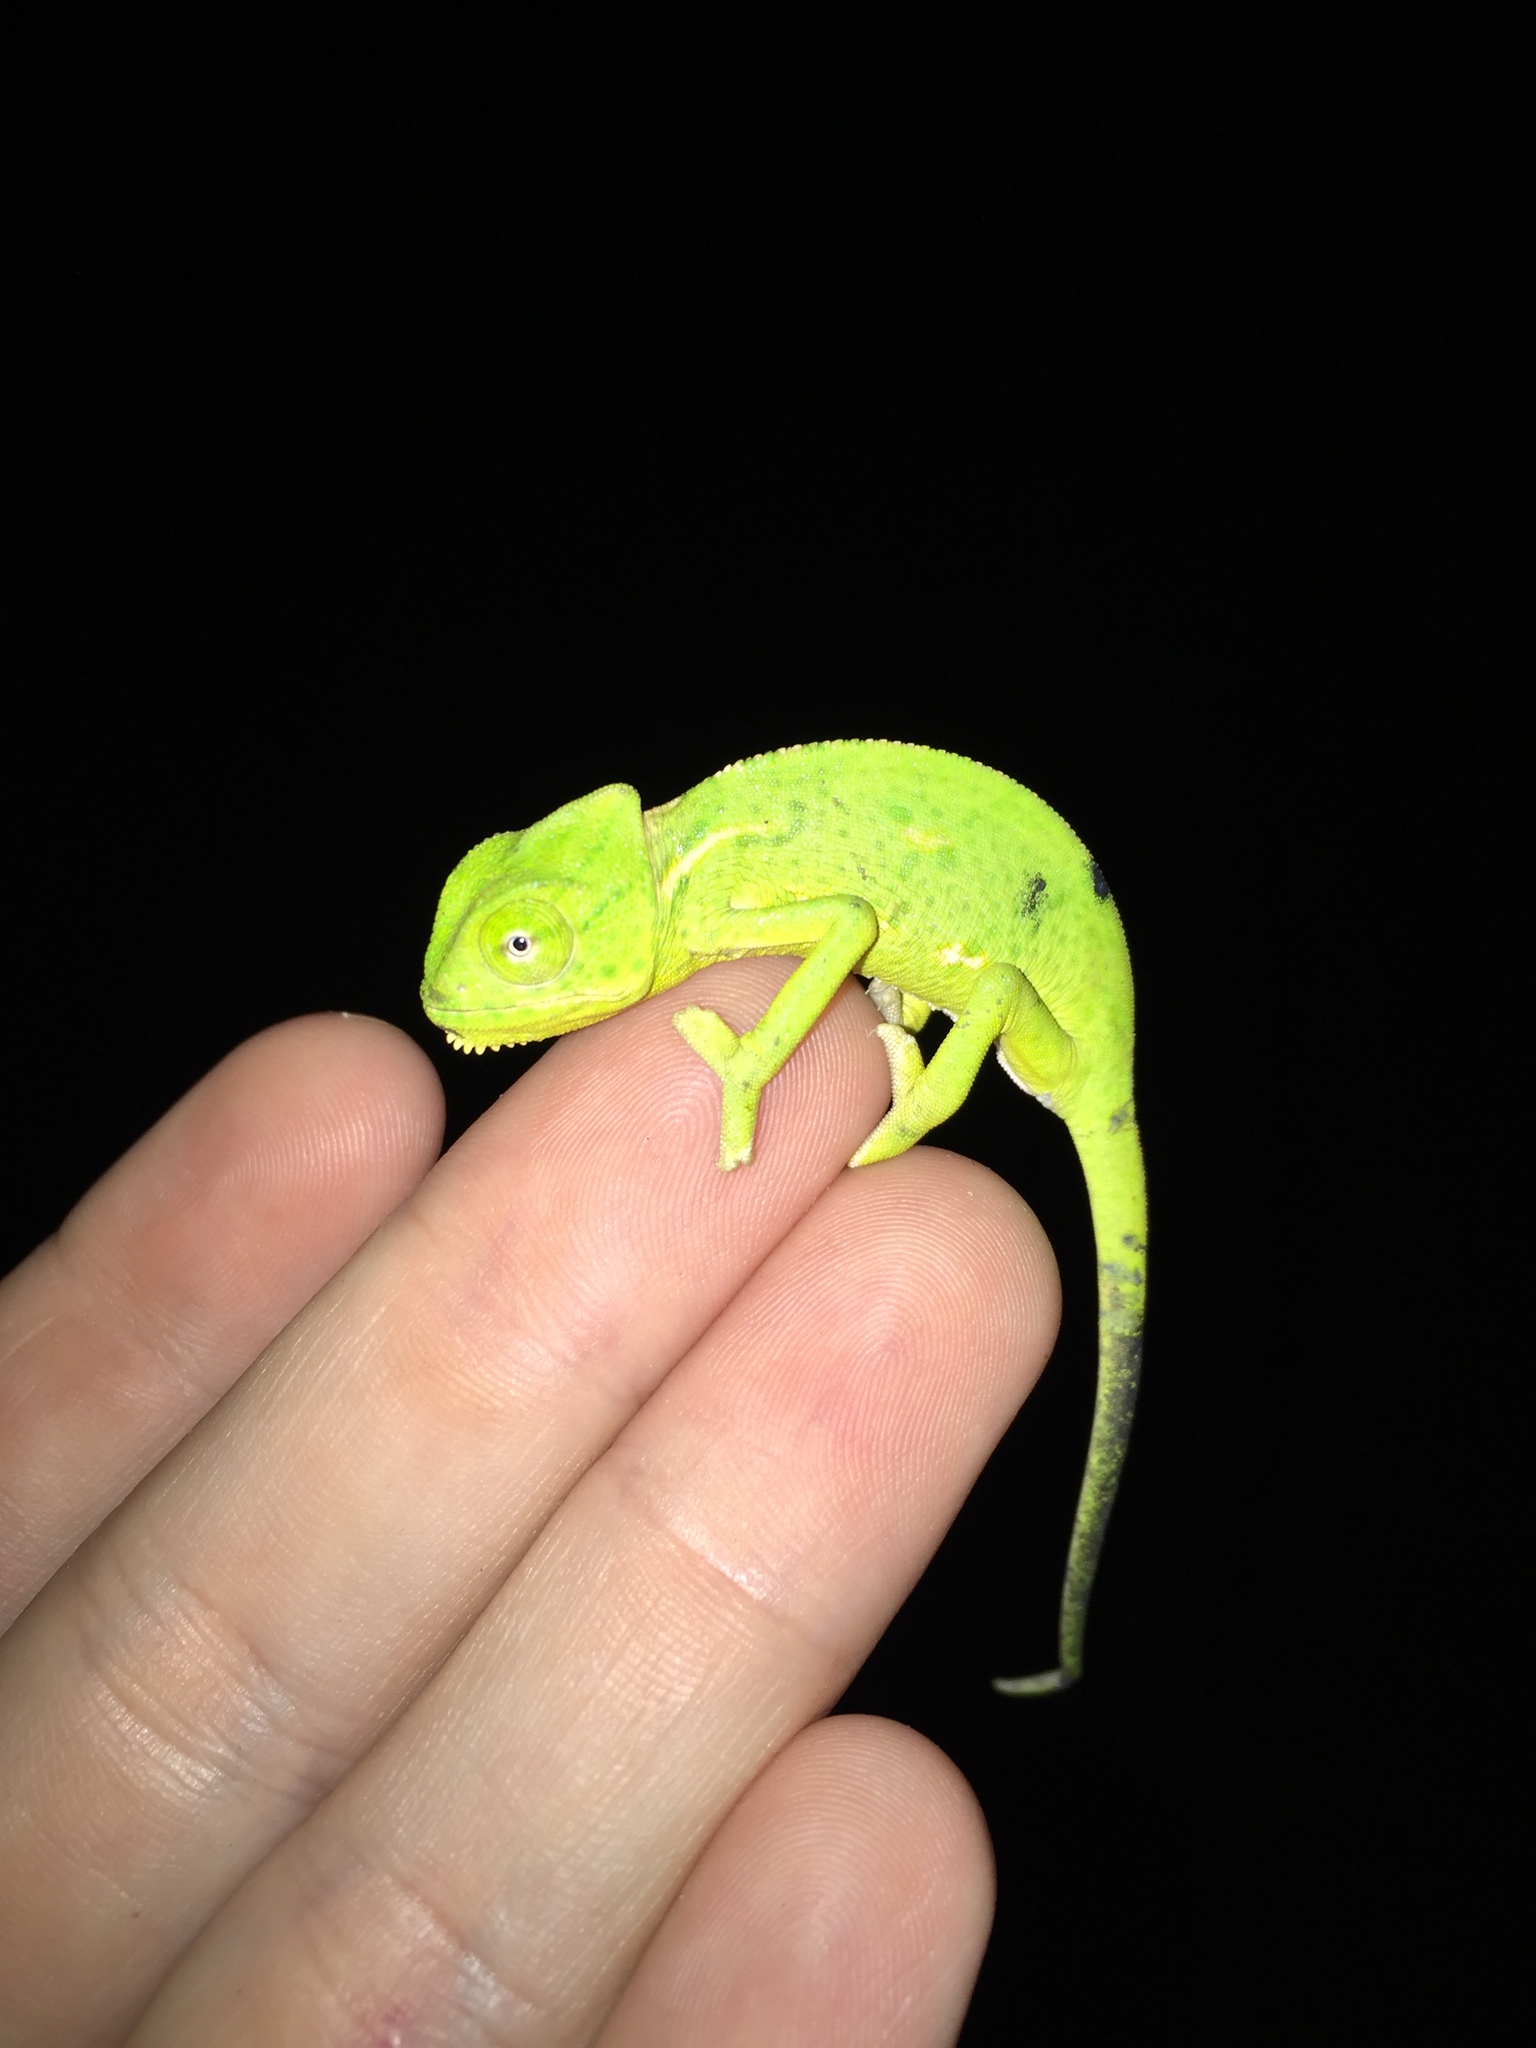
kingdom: Animalia
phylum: Chordata
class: Squamata
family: Chamaeleonidae
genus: Chamaeleo
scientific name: Chamaeleo calyptratus
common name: Veiled chameleon
